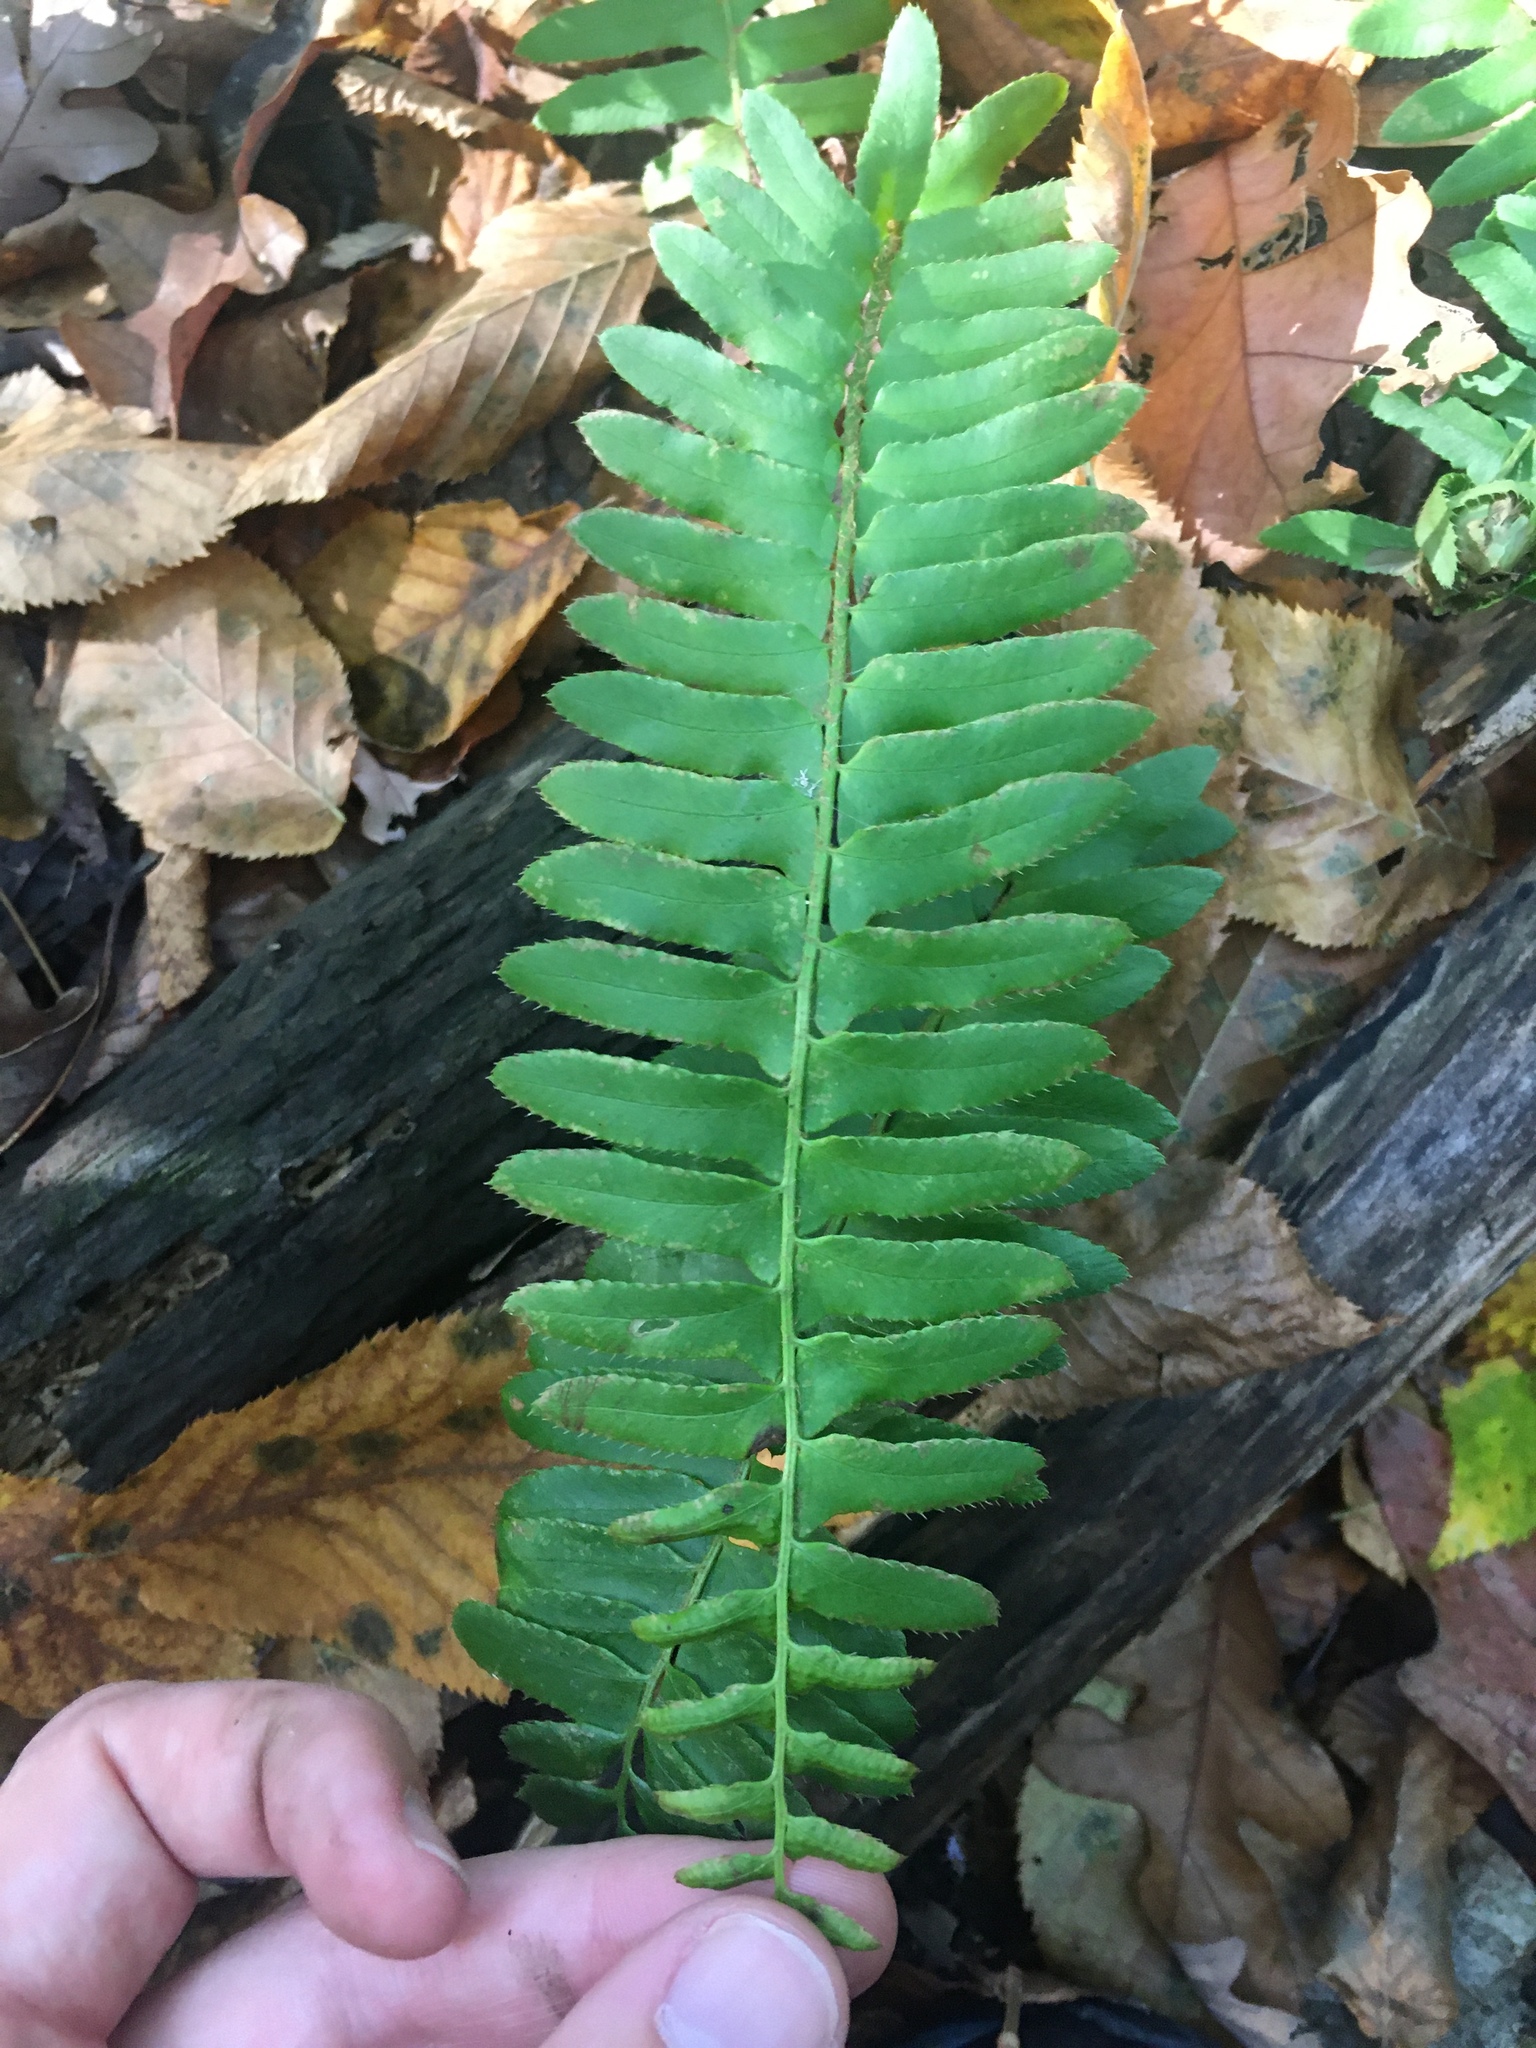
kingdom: Plantae
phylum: Tracheophyta
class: Polypodiopsida
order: Polypodiales
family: Dryopteridaceae
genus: Polystichum
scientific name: Polystichum acrostichoides
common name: Christmas fern
